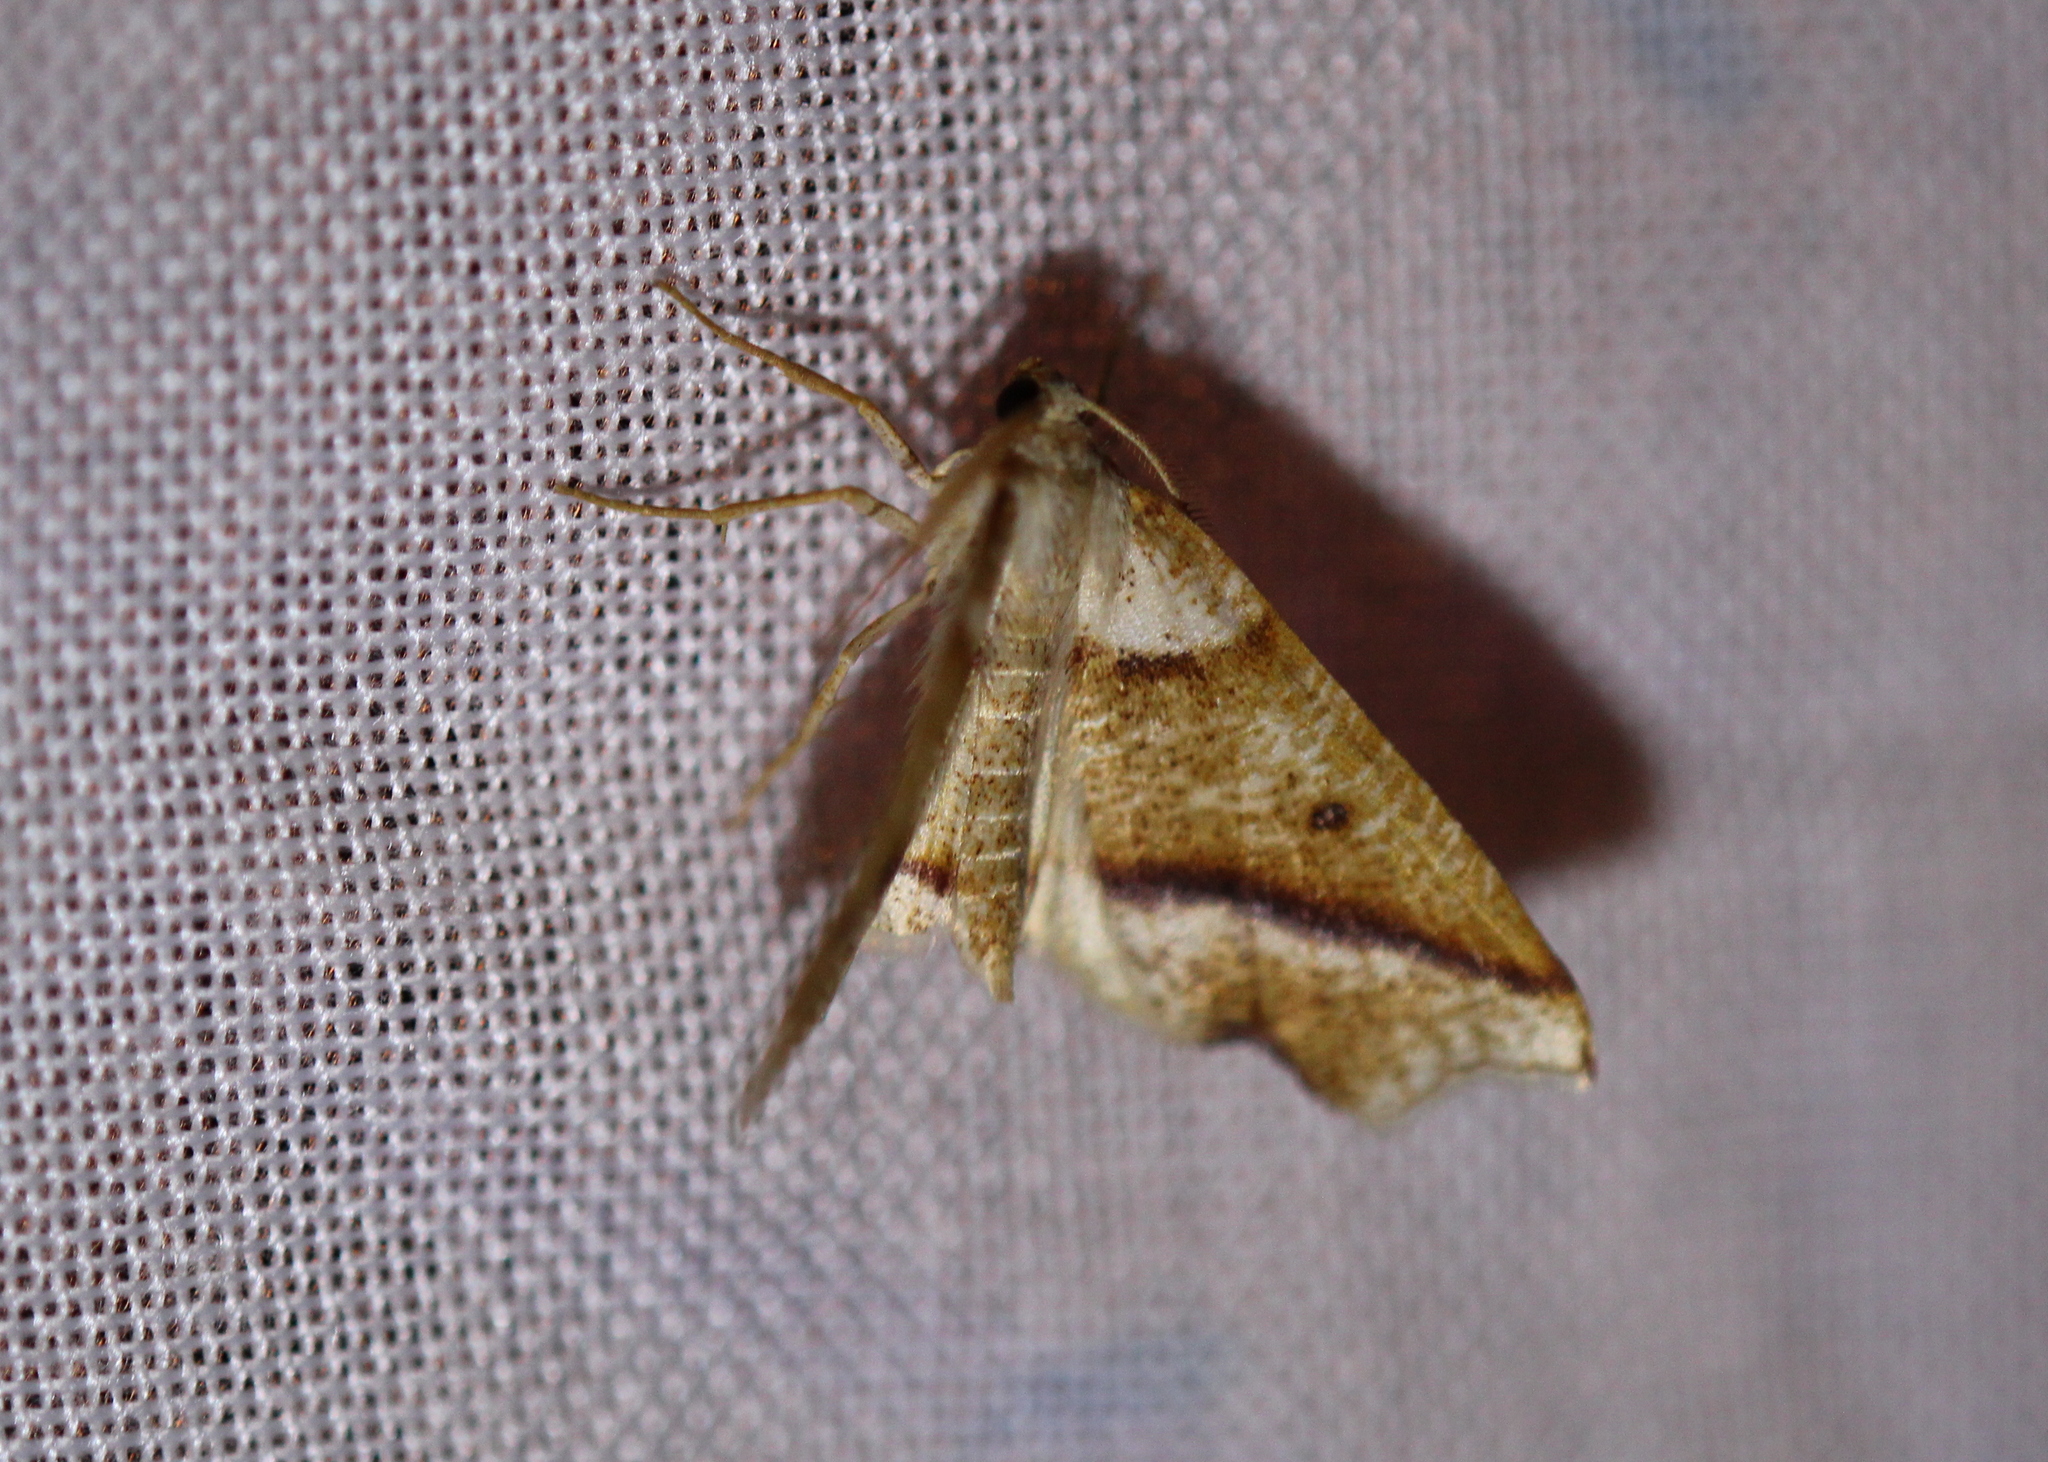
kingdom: Animalia
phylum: Arthropoda
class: Insecta
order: Lepidoptera
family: Geometridae
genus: Plagodis
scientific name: Plagodis alcoolaria
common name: Hollow-spotted plagodis
